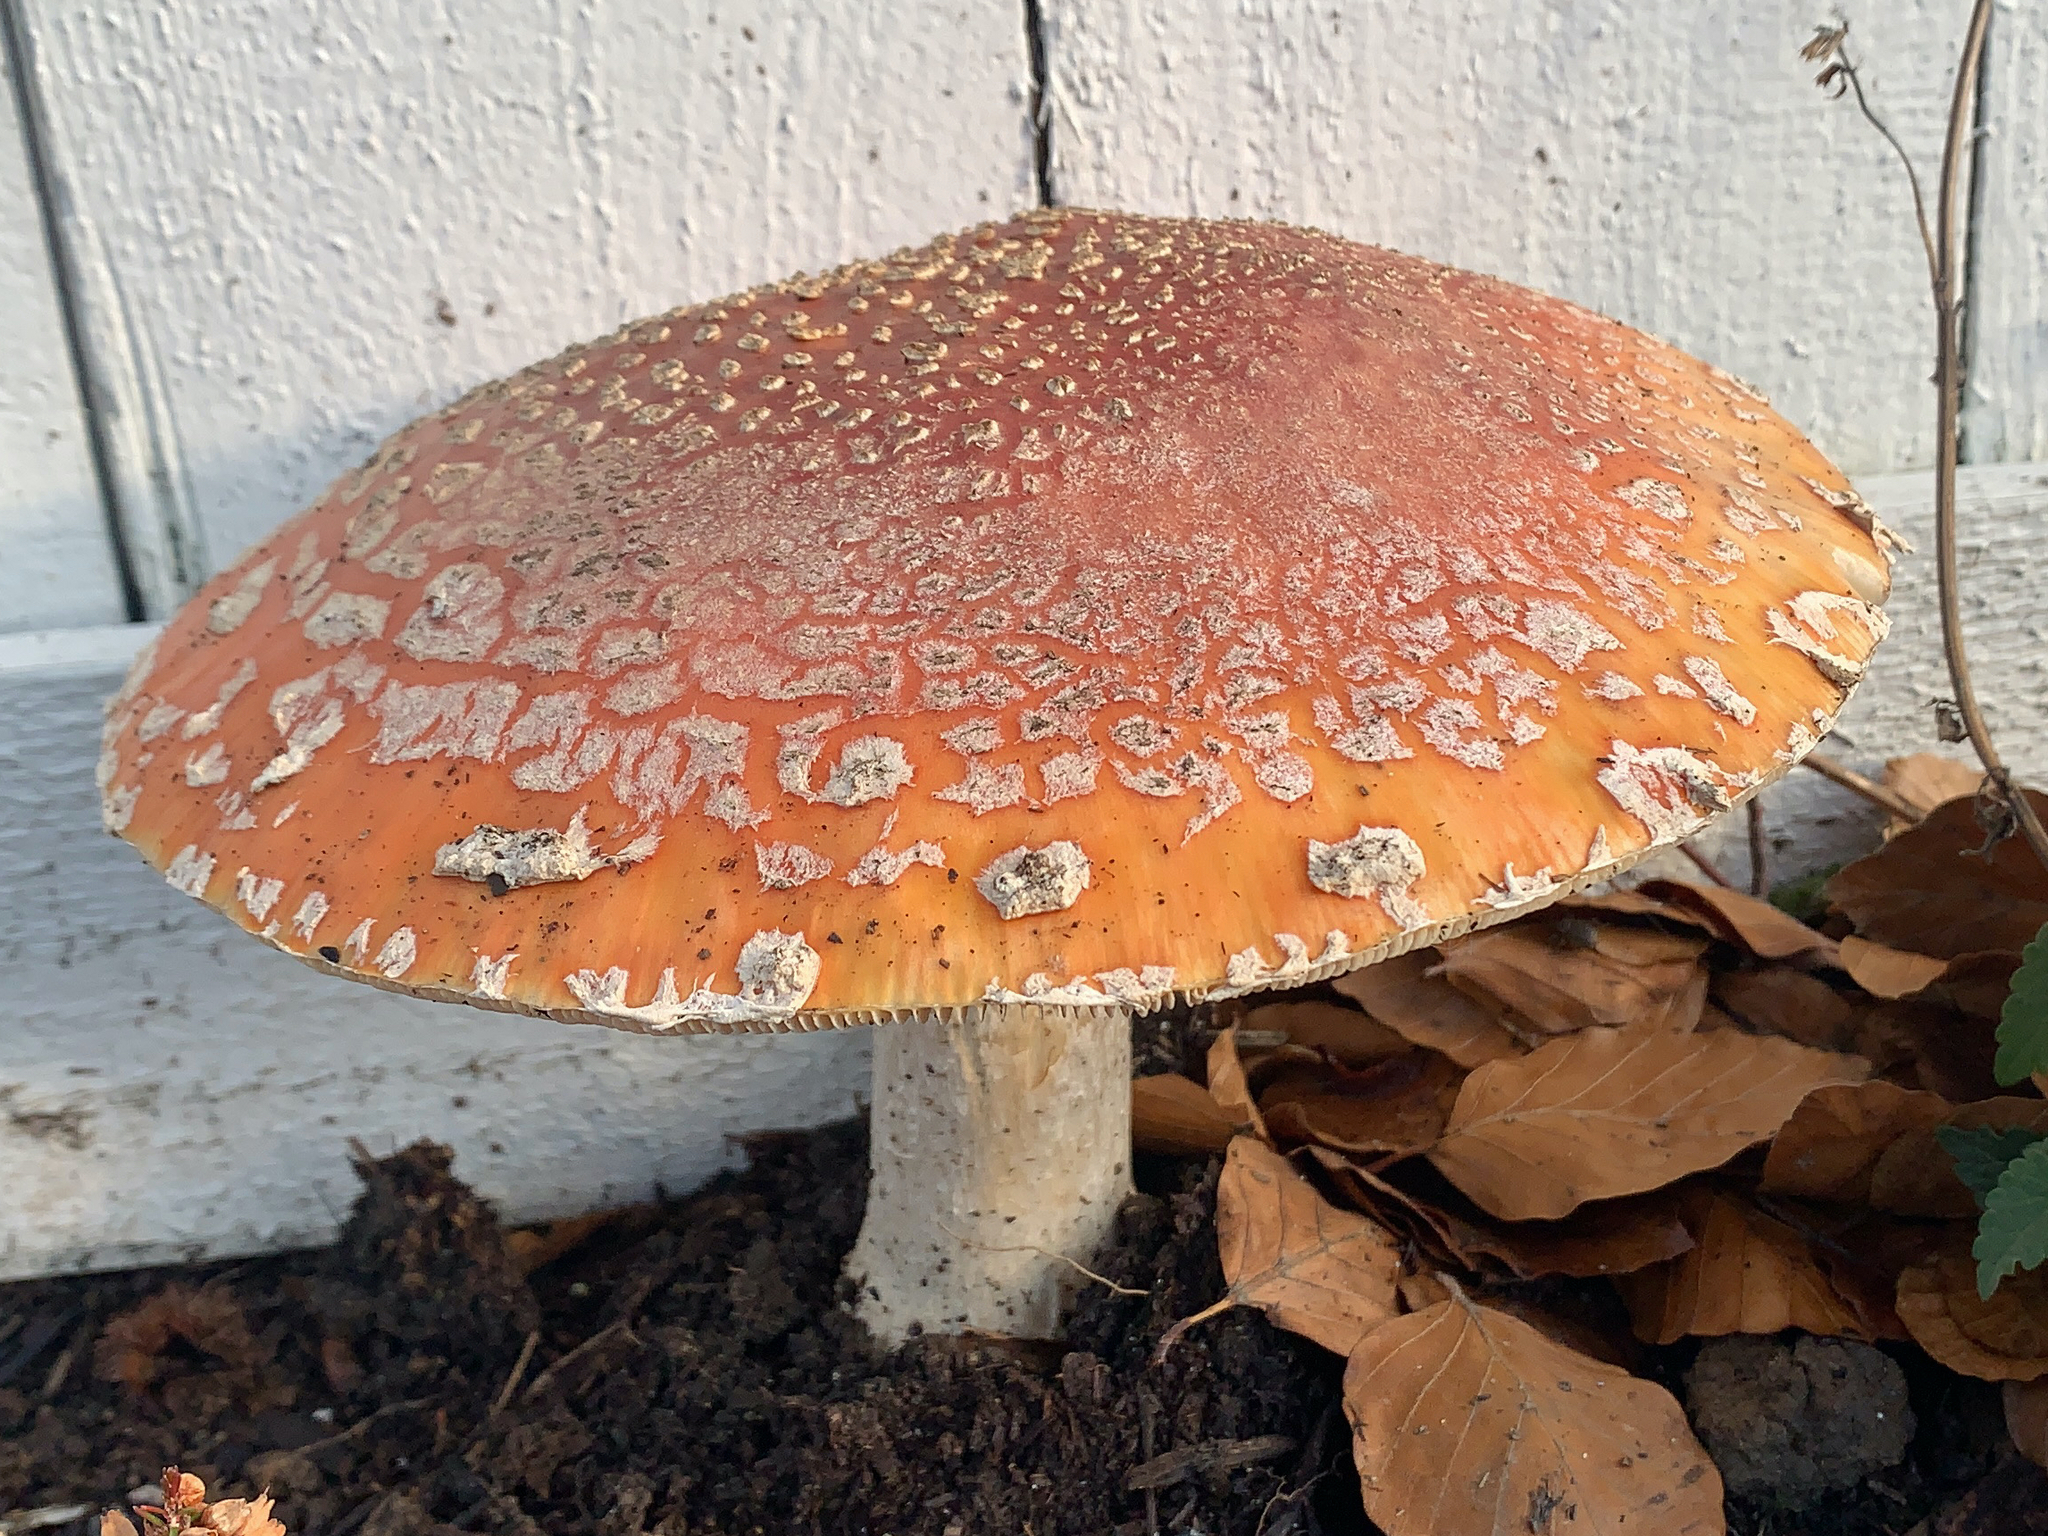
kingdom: Fungi
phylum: Basidiomycota
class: Agaricomycetes
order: Agaricales
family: Amanitaceae
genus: Amanita
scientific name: Amanita muscaria
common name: Fly agaric
